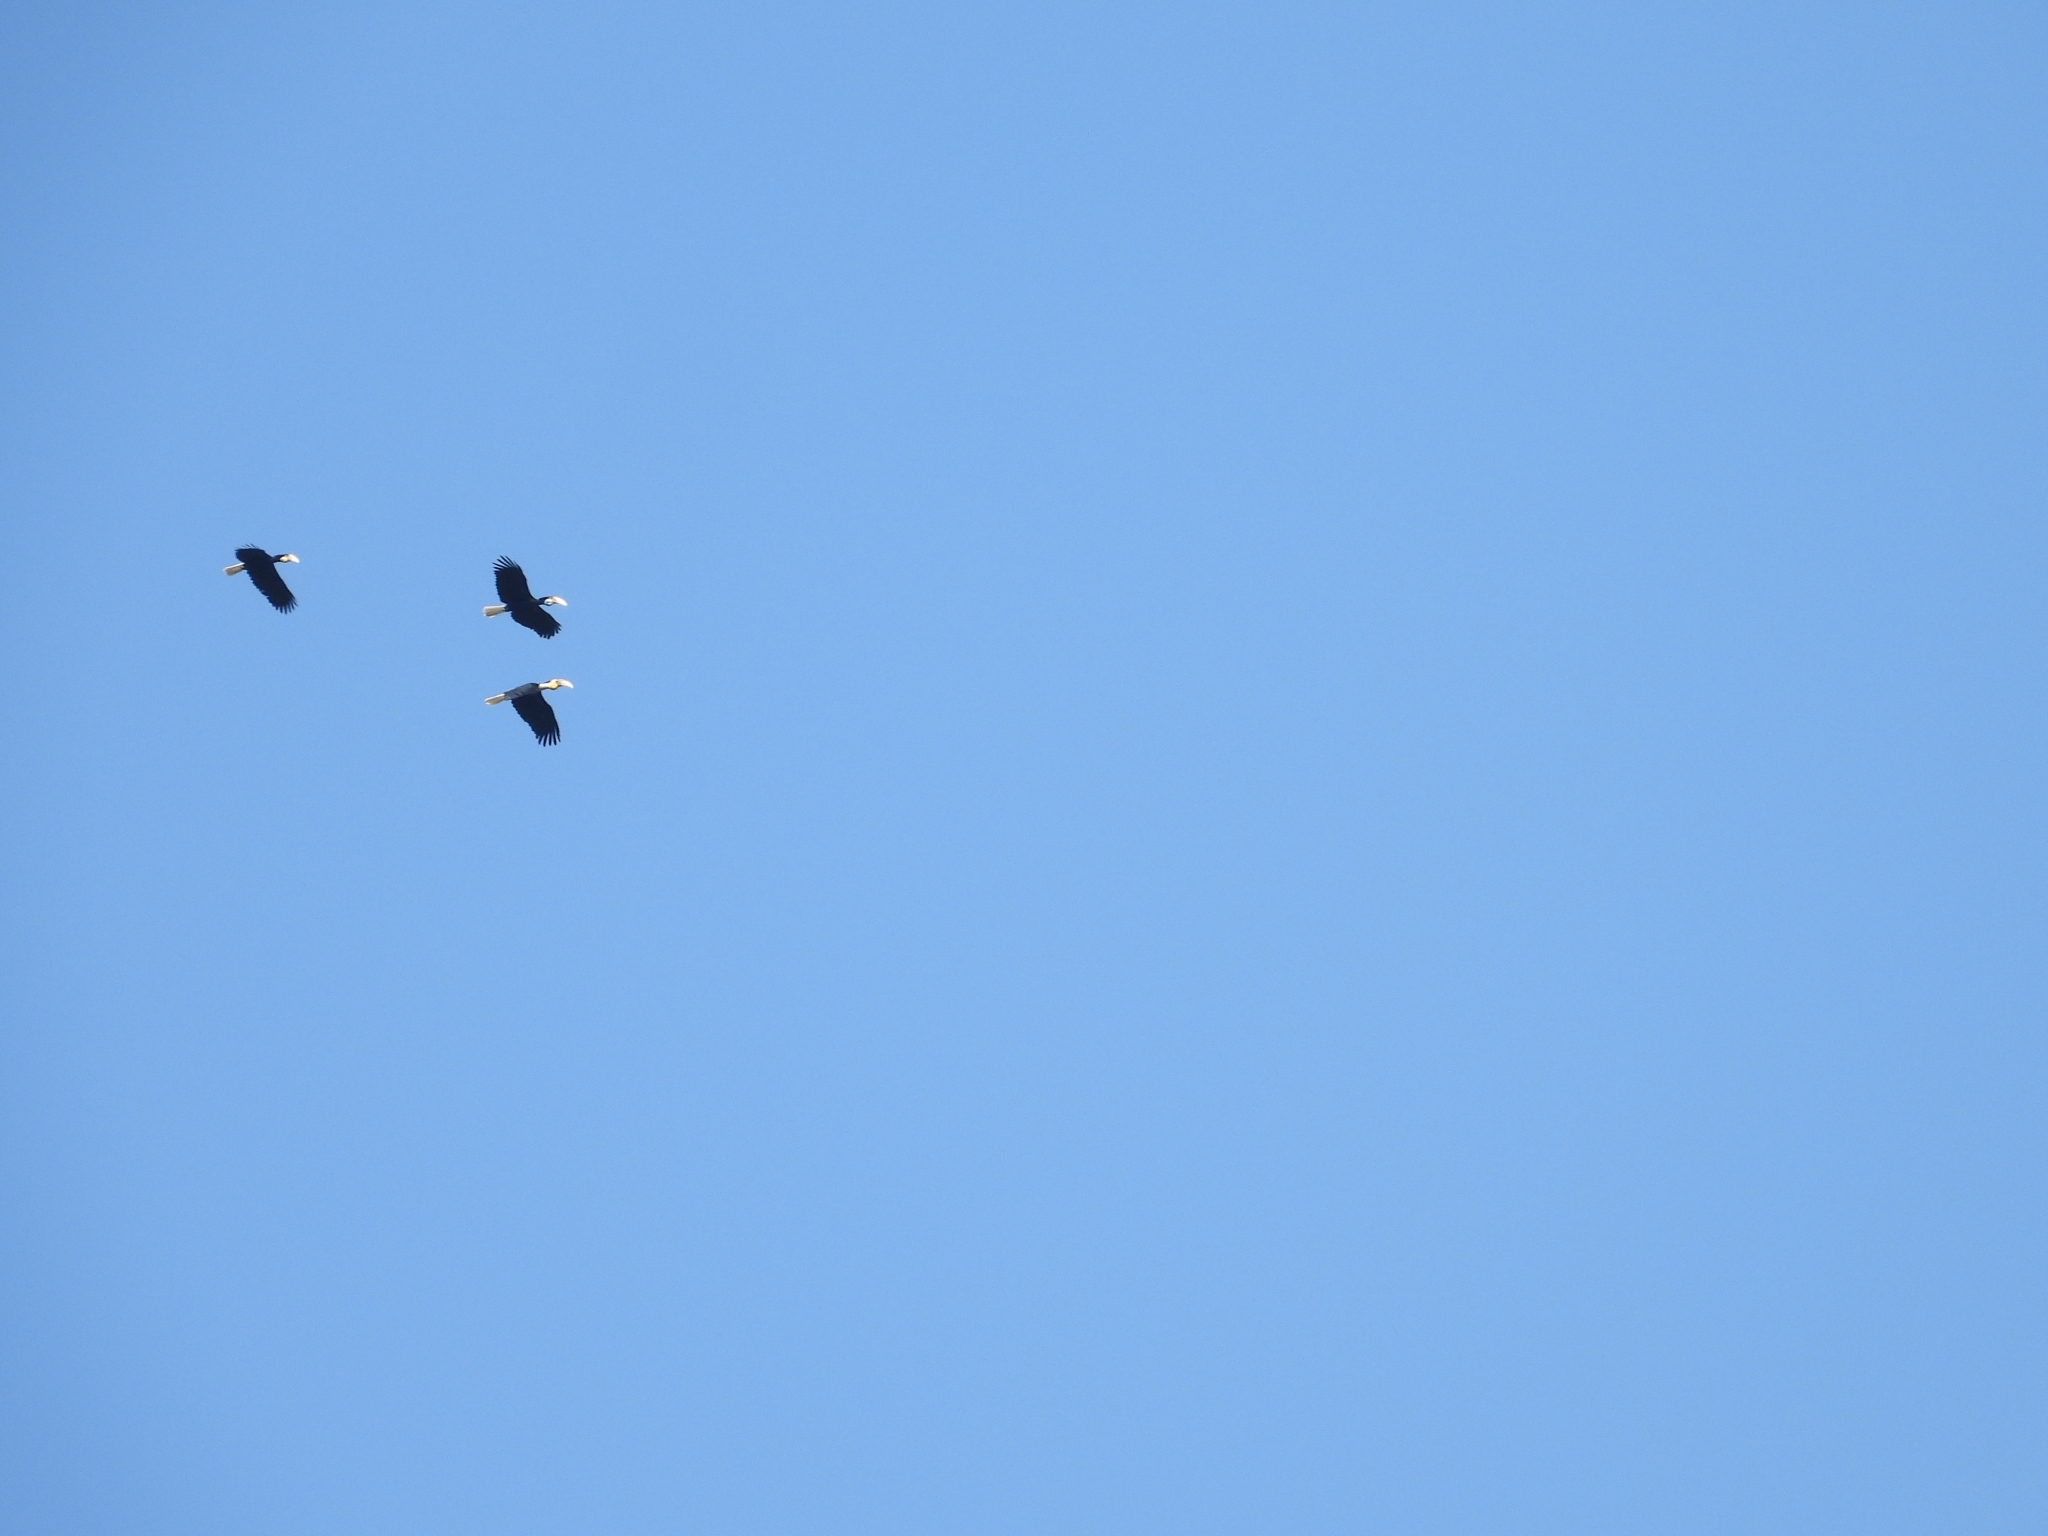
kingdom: Animalia
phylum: Chordata
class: Aves
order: Bucerotiformes
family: Bucerotidae
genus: Rhyticeros
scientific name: Rhyticeros undulatus
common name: Wreathed hornbill
